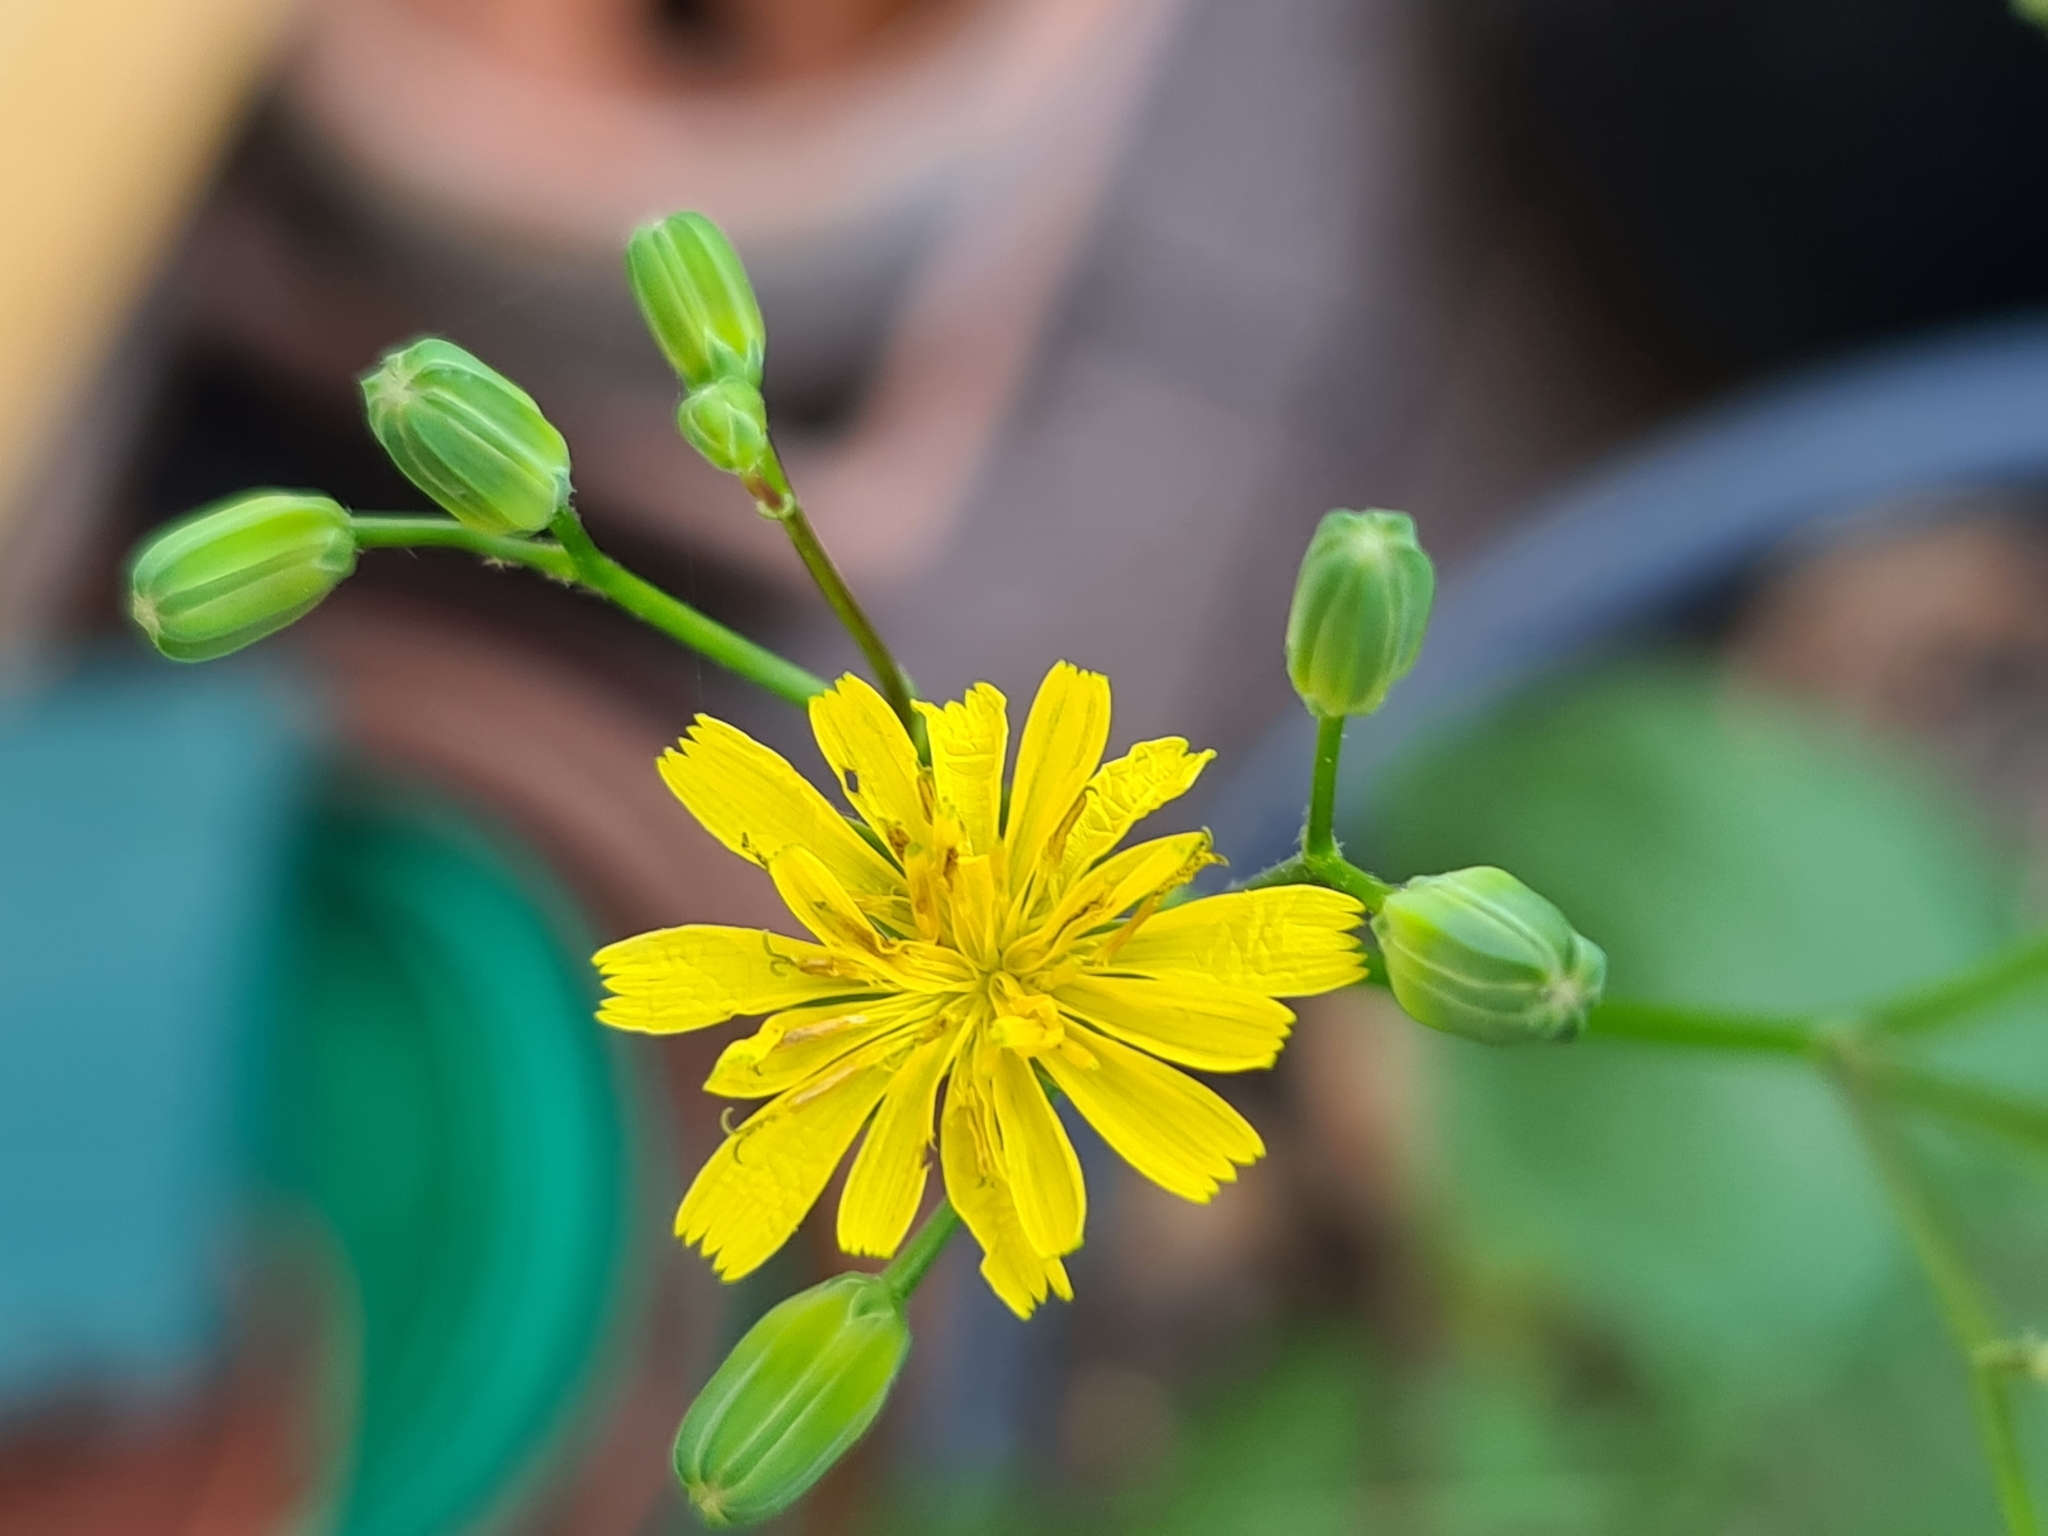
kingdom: Plantae
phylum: Tracheophyta
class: Magnoliopsida
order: Asterales
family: Asteraceae
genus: Lapsana
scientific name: Lapsana communis
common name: Nipplewort
